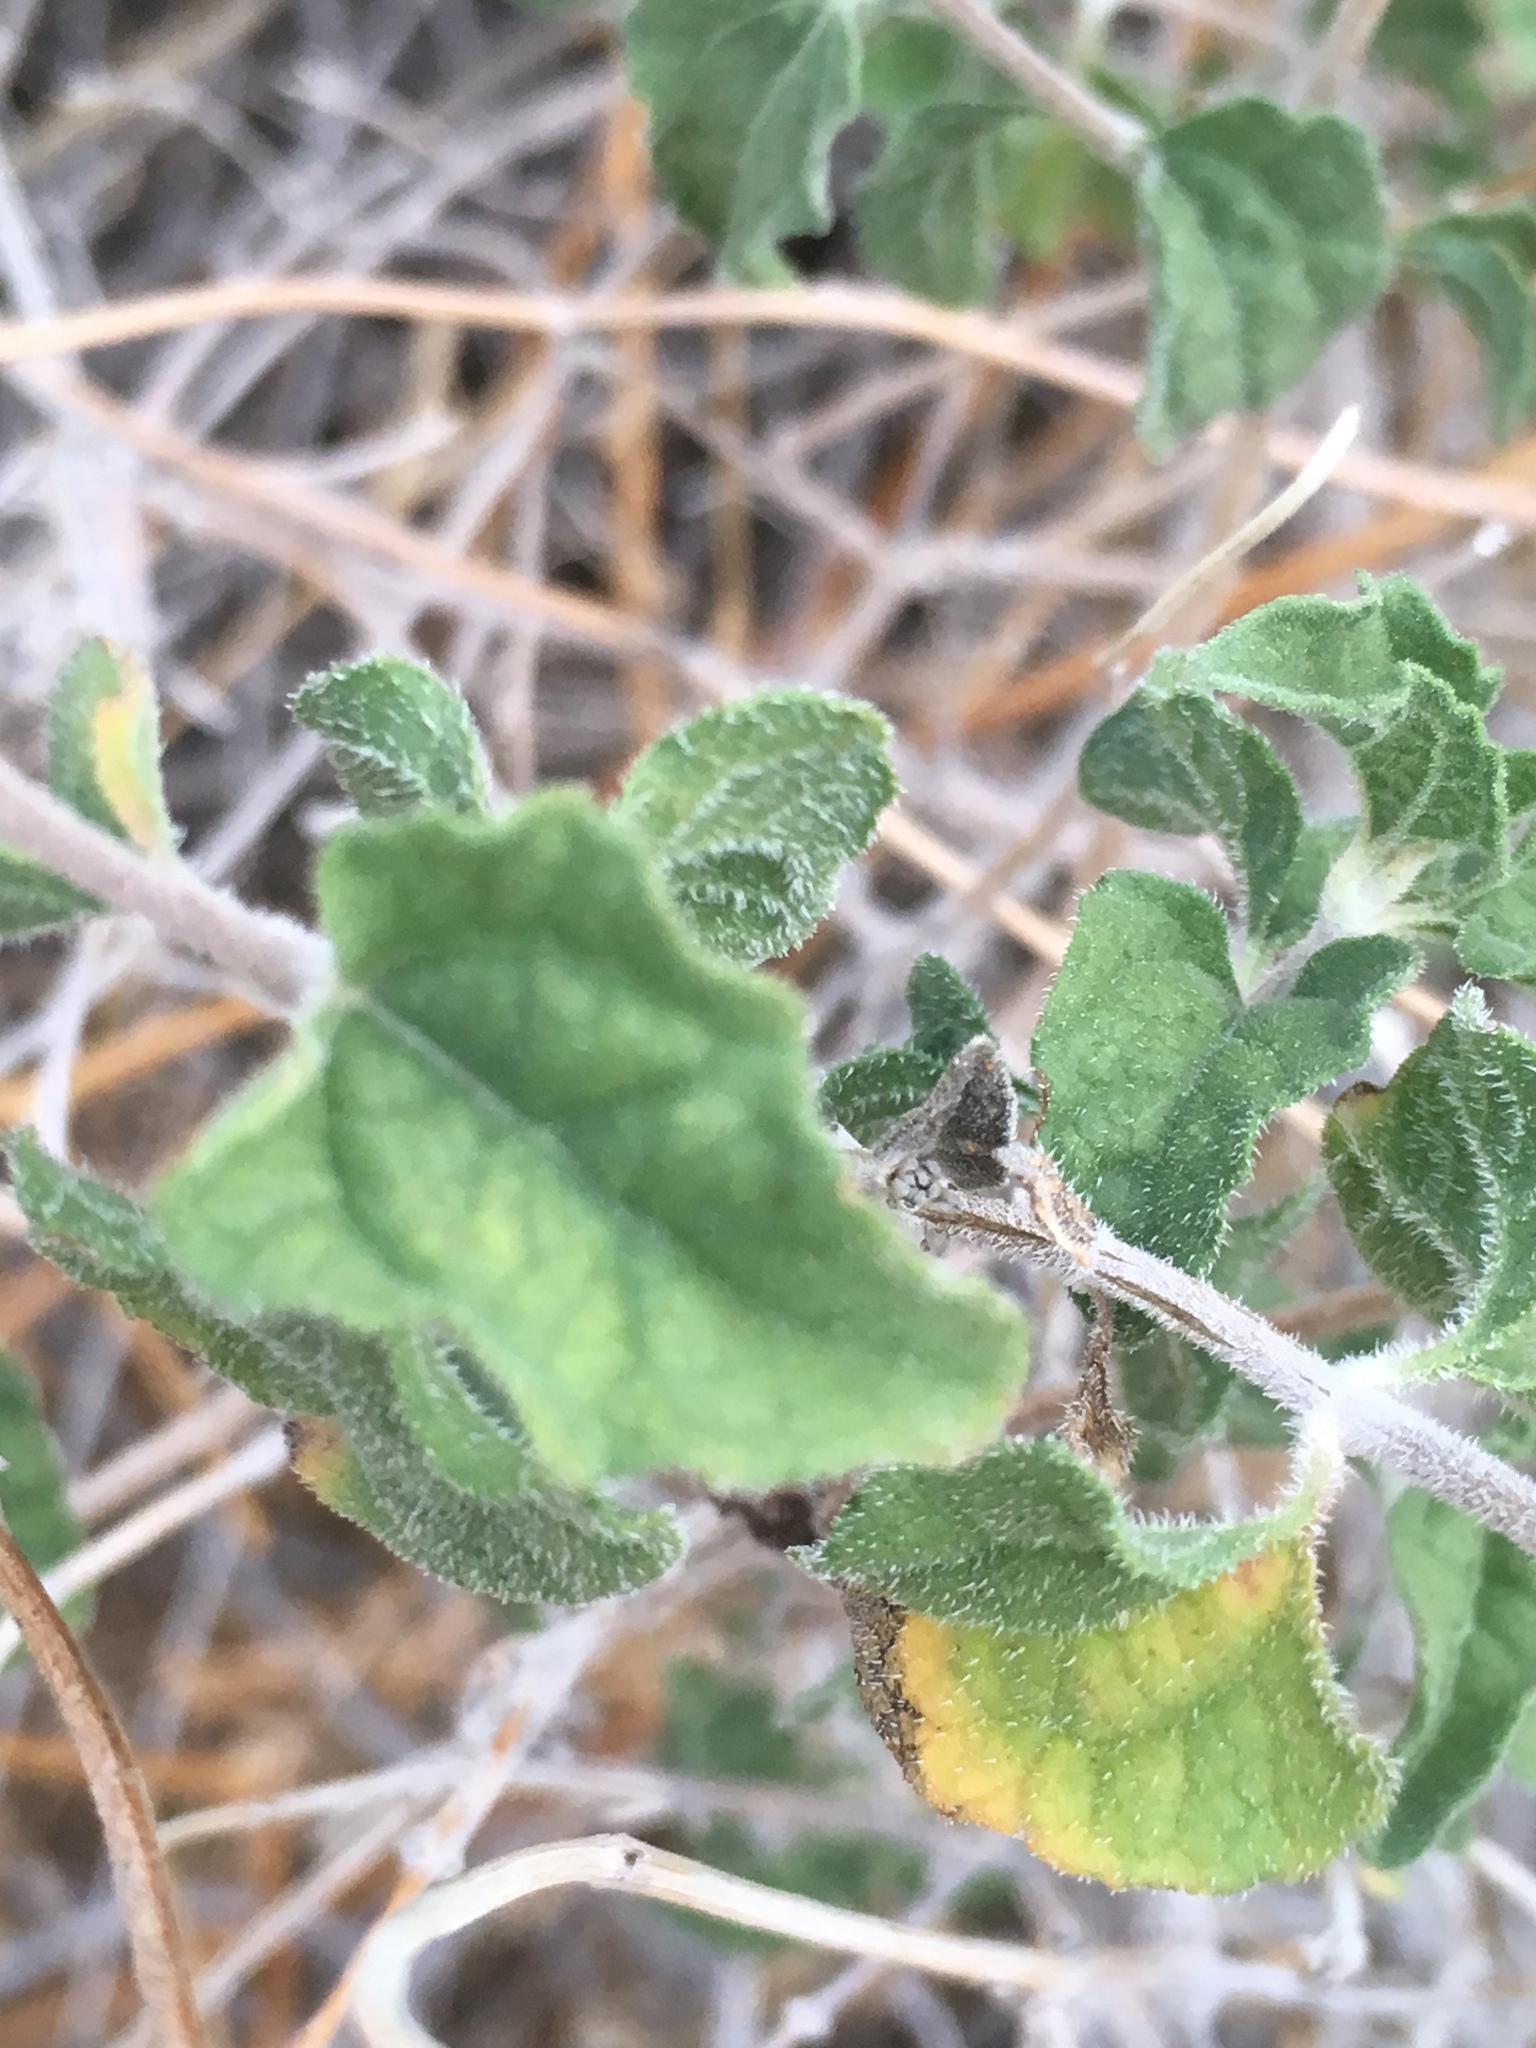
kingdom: Plantae
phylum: Tracheophyta
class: Magnoliopsida
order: Asterales
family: Asteraceae
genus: Bahiopsis
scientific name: Bahiopsis parishii
